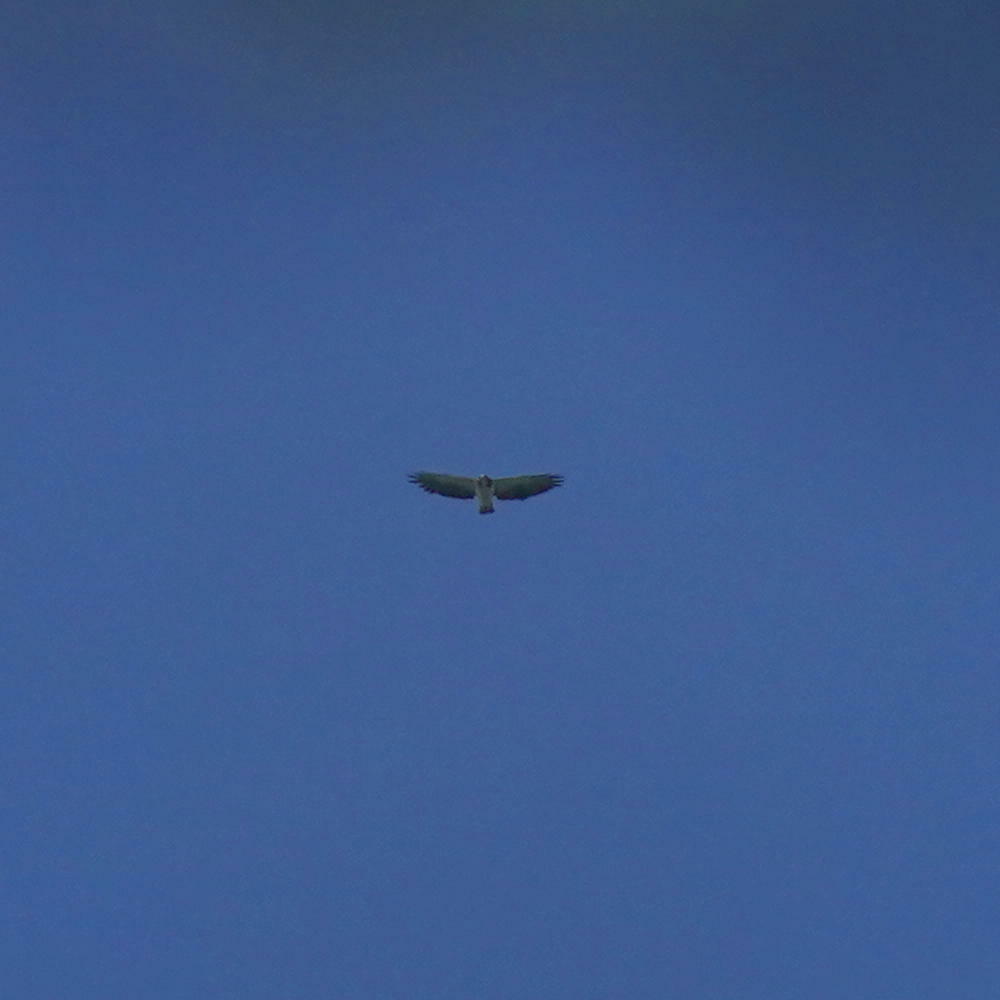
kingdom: Animalia
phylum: Chordata
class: Aves
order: Accipitriformes
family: Accipitridae
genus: Buteo
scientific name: Buteo brachyurus
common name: Short-tailed hawk
